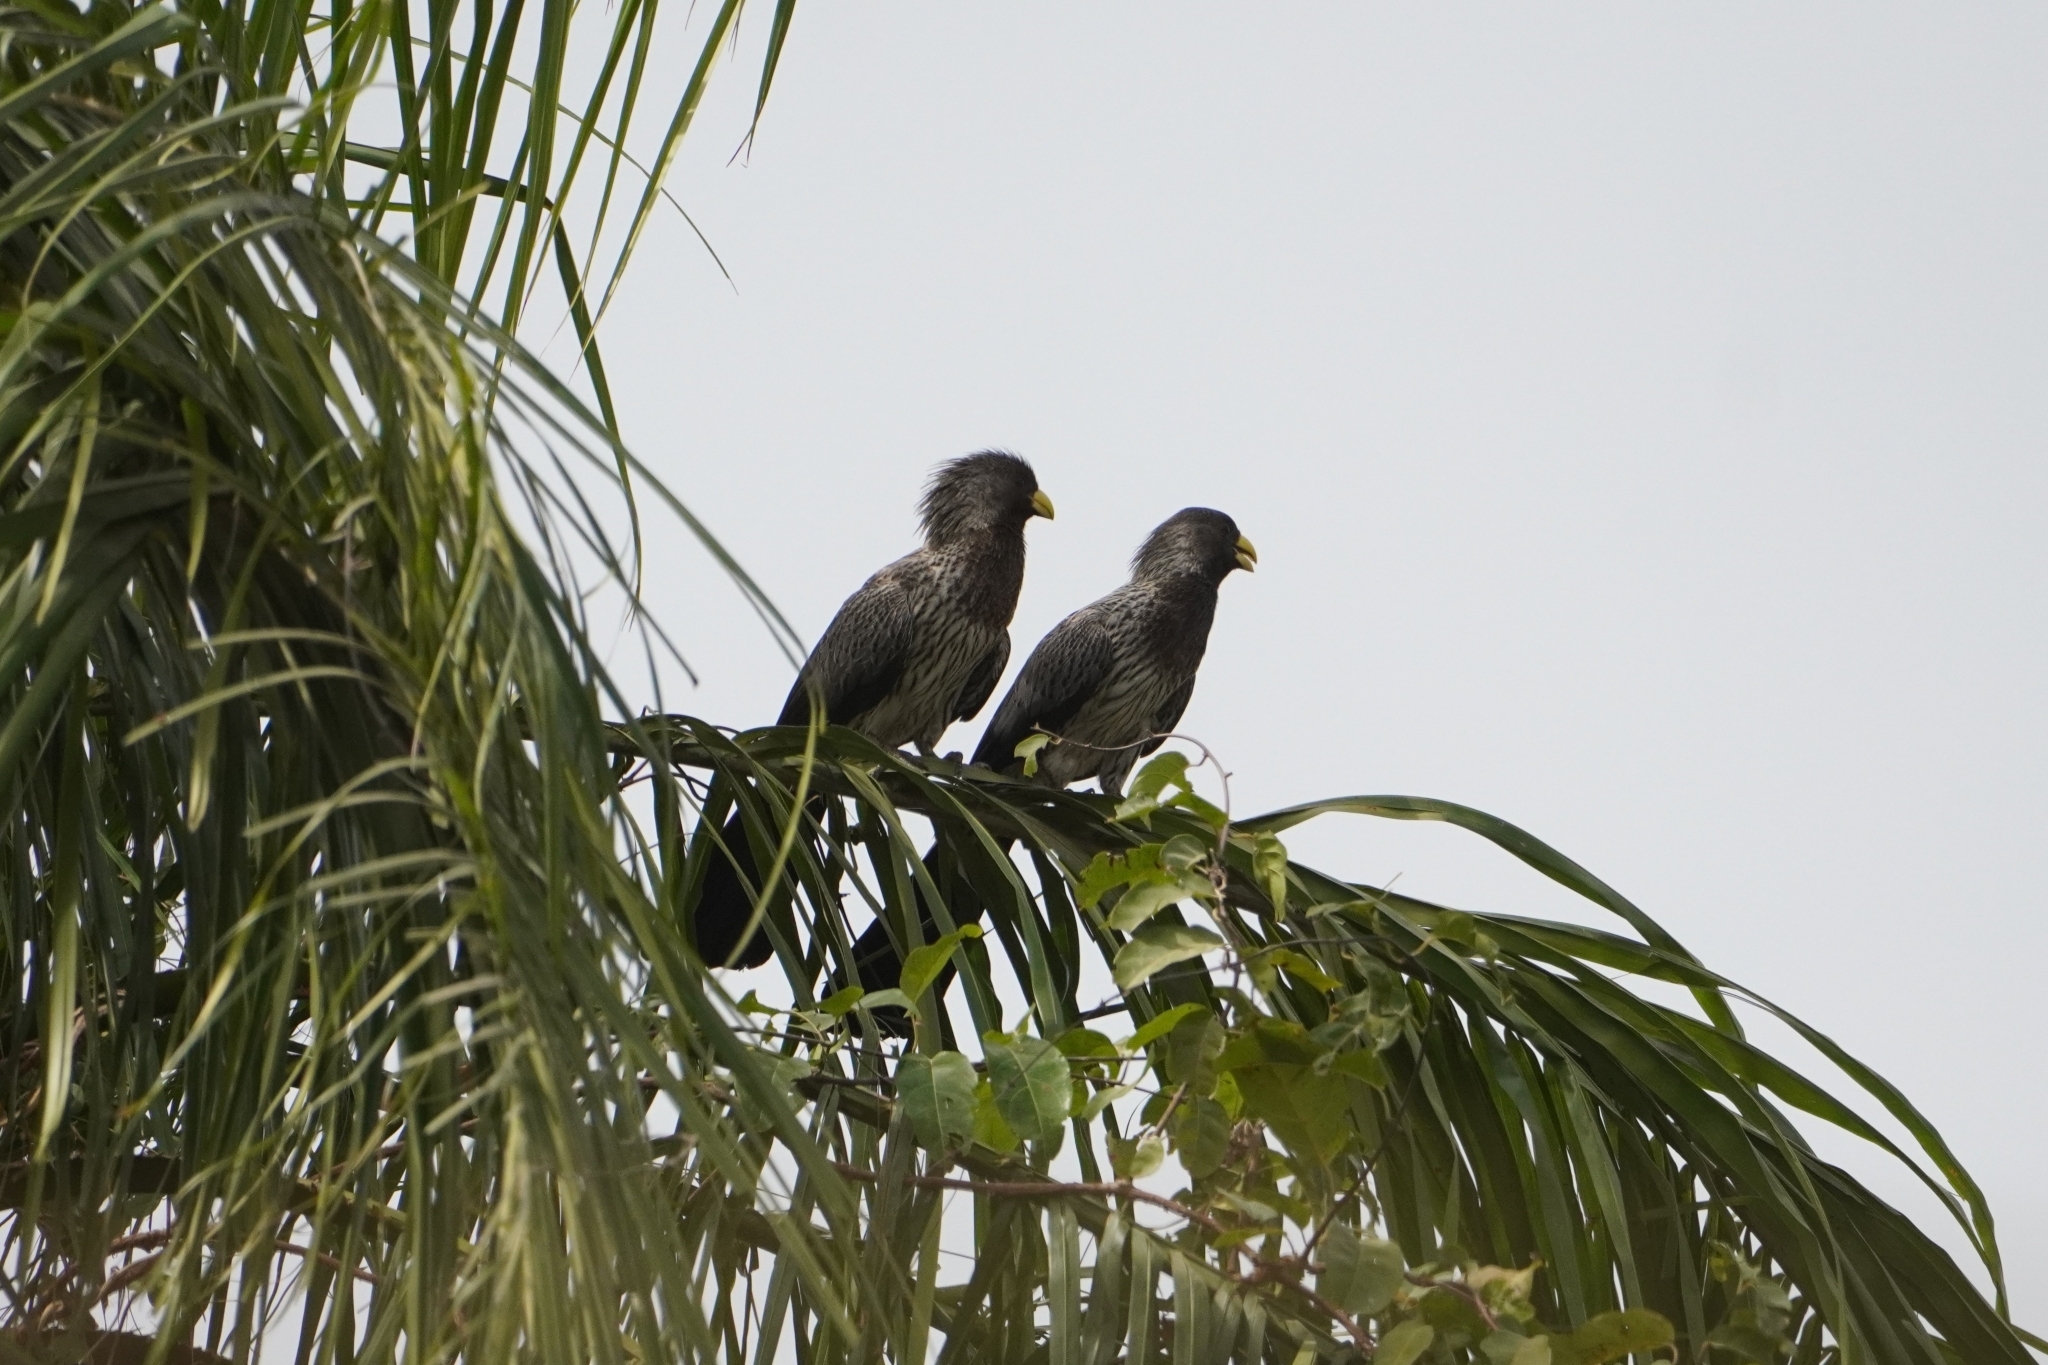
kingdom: Animalia
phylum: Chordata
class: Aves
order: Musophagiformes
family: Musophagidae
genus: Crinifer
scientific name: Crinifer piscator
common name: Western plantain-eater
